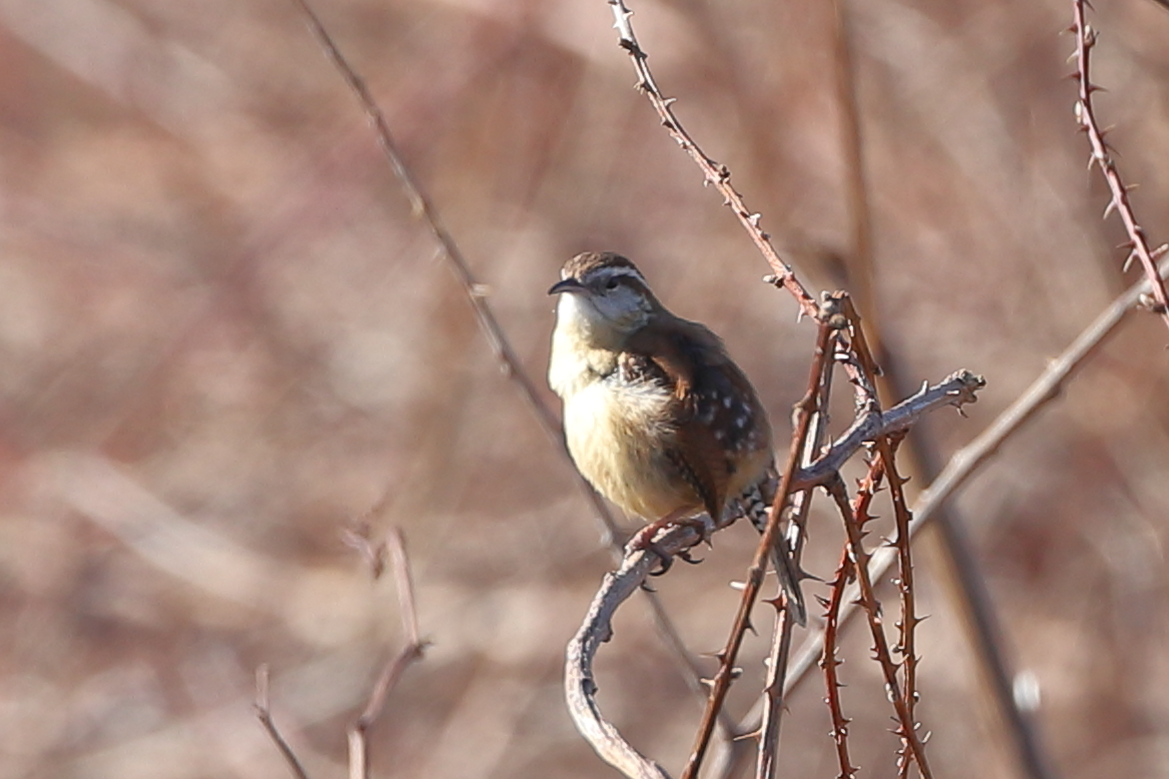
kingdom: Animalia
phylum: Chordata
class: Aves
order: Passeriformes
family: Troglodytidae
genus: Thryothorus
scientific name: Thryothorus ludovicianus
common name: Carolina wren
